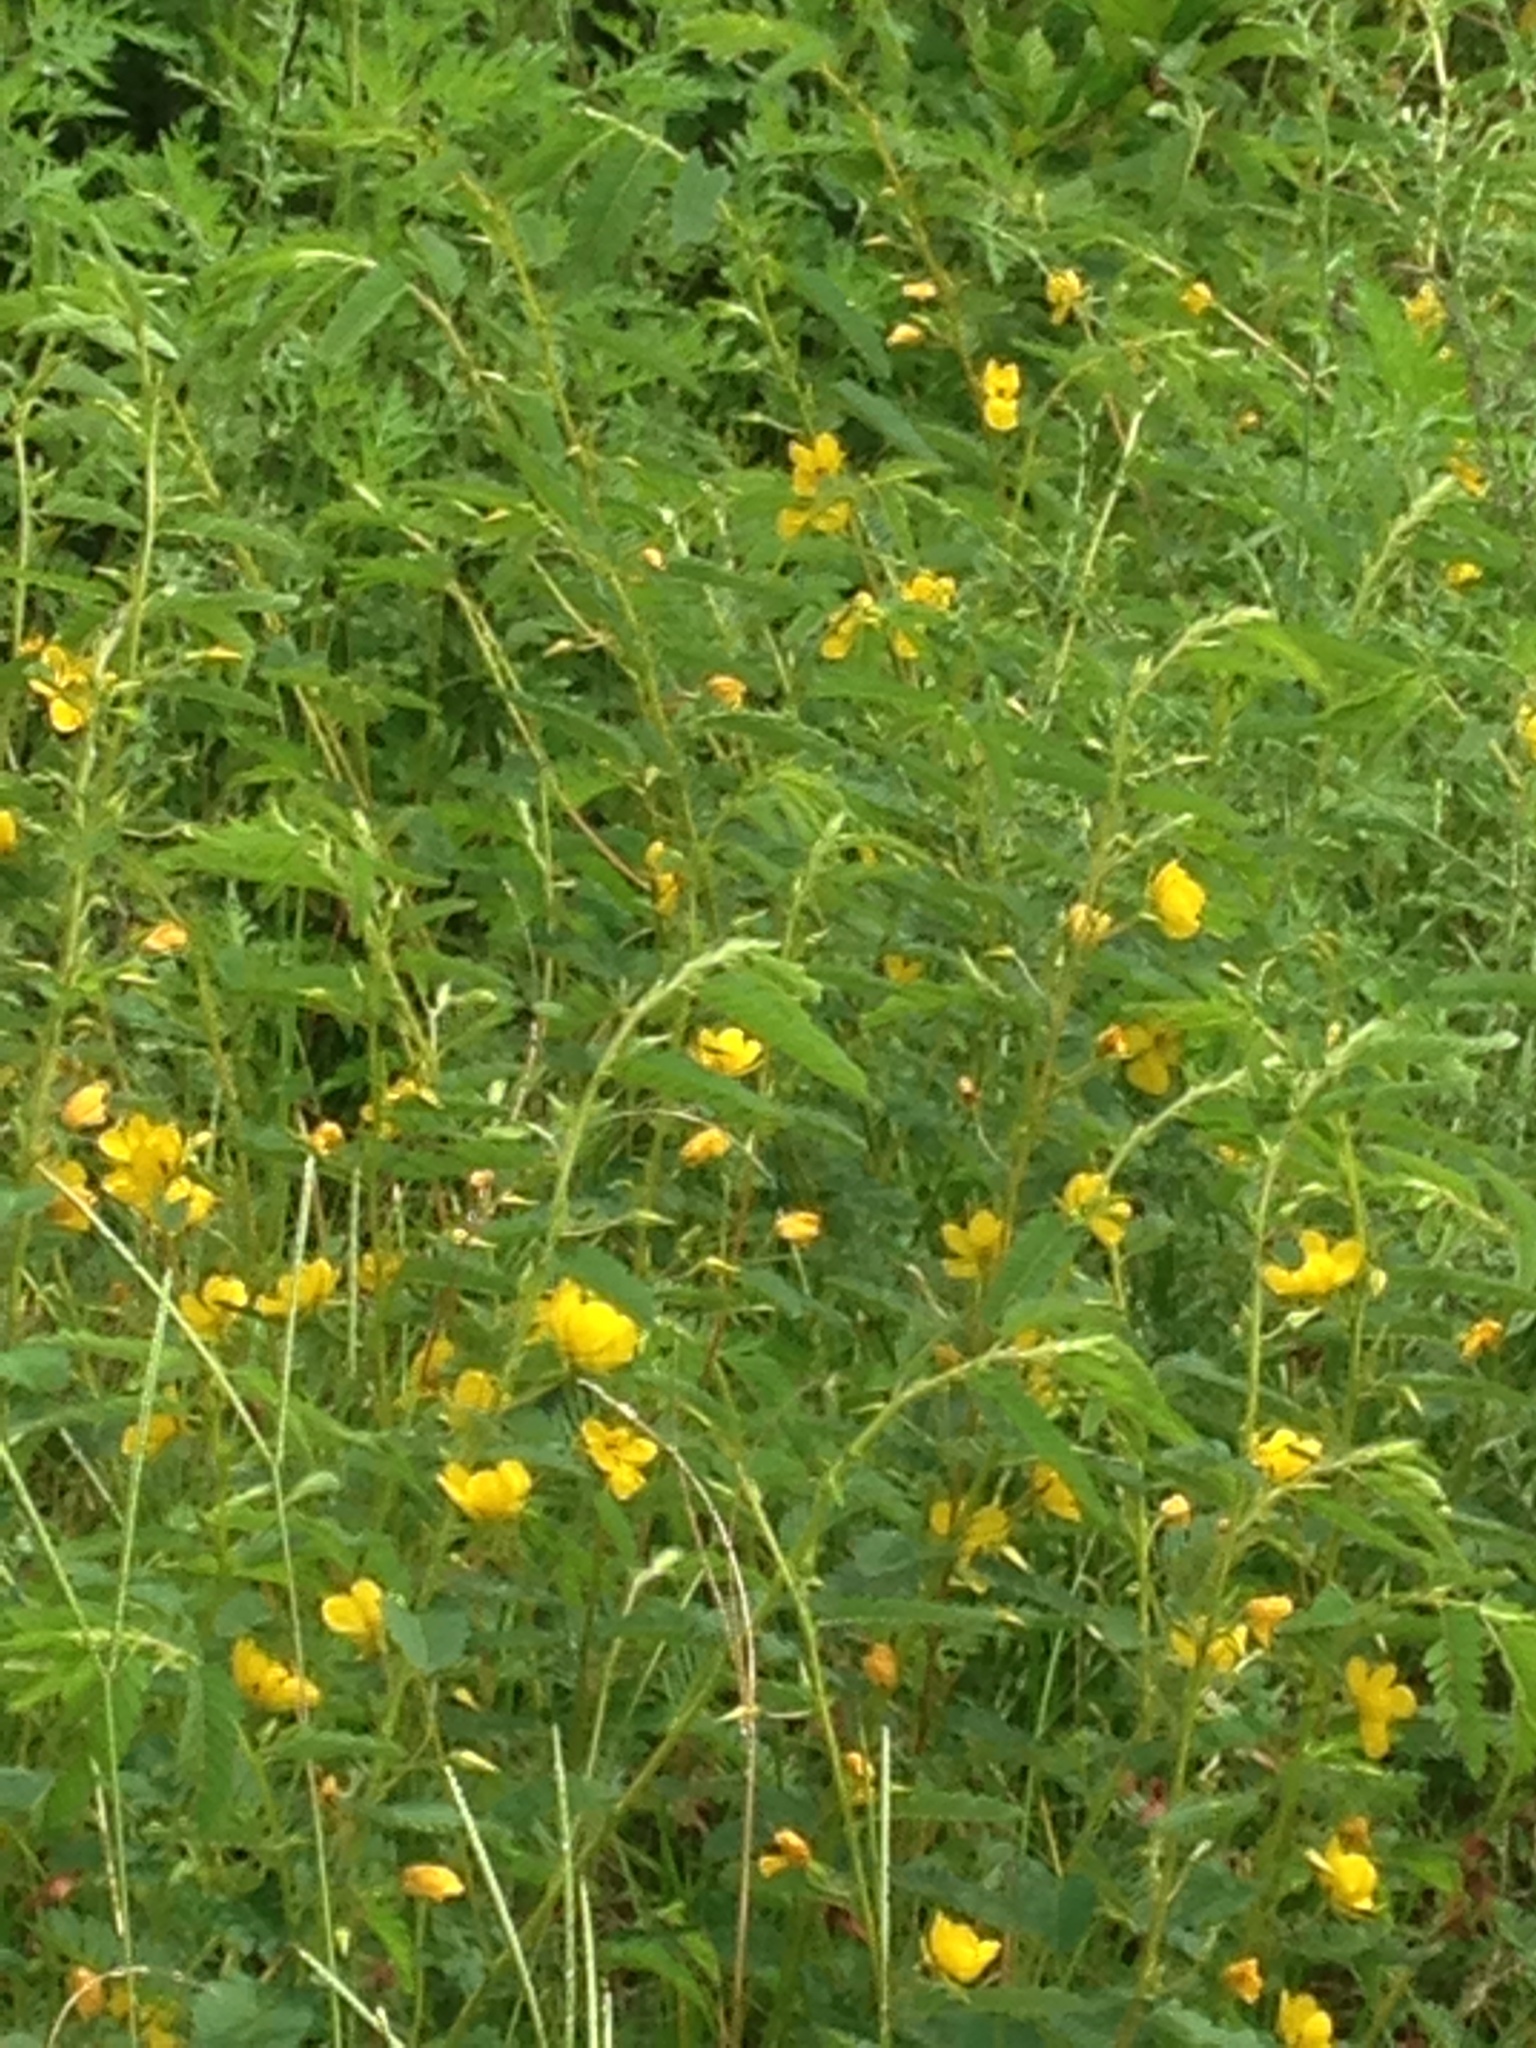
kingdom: Plantae
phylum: Tracheophyta
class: Magnoliopsida
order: Fabales
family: Fabaceae
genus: Chamaecrista
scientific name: Chamaecrista fasciculata
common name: Golden cassia
